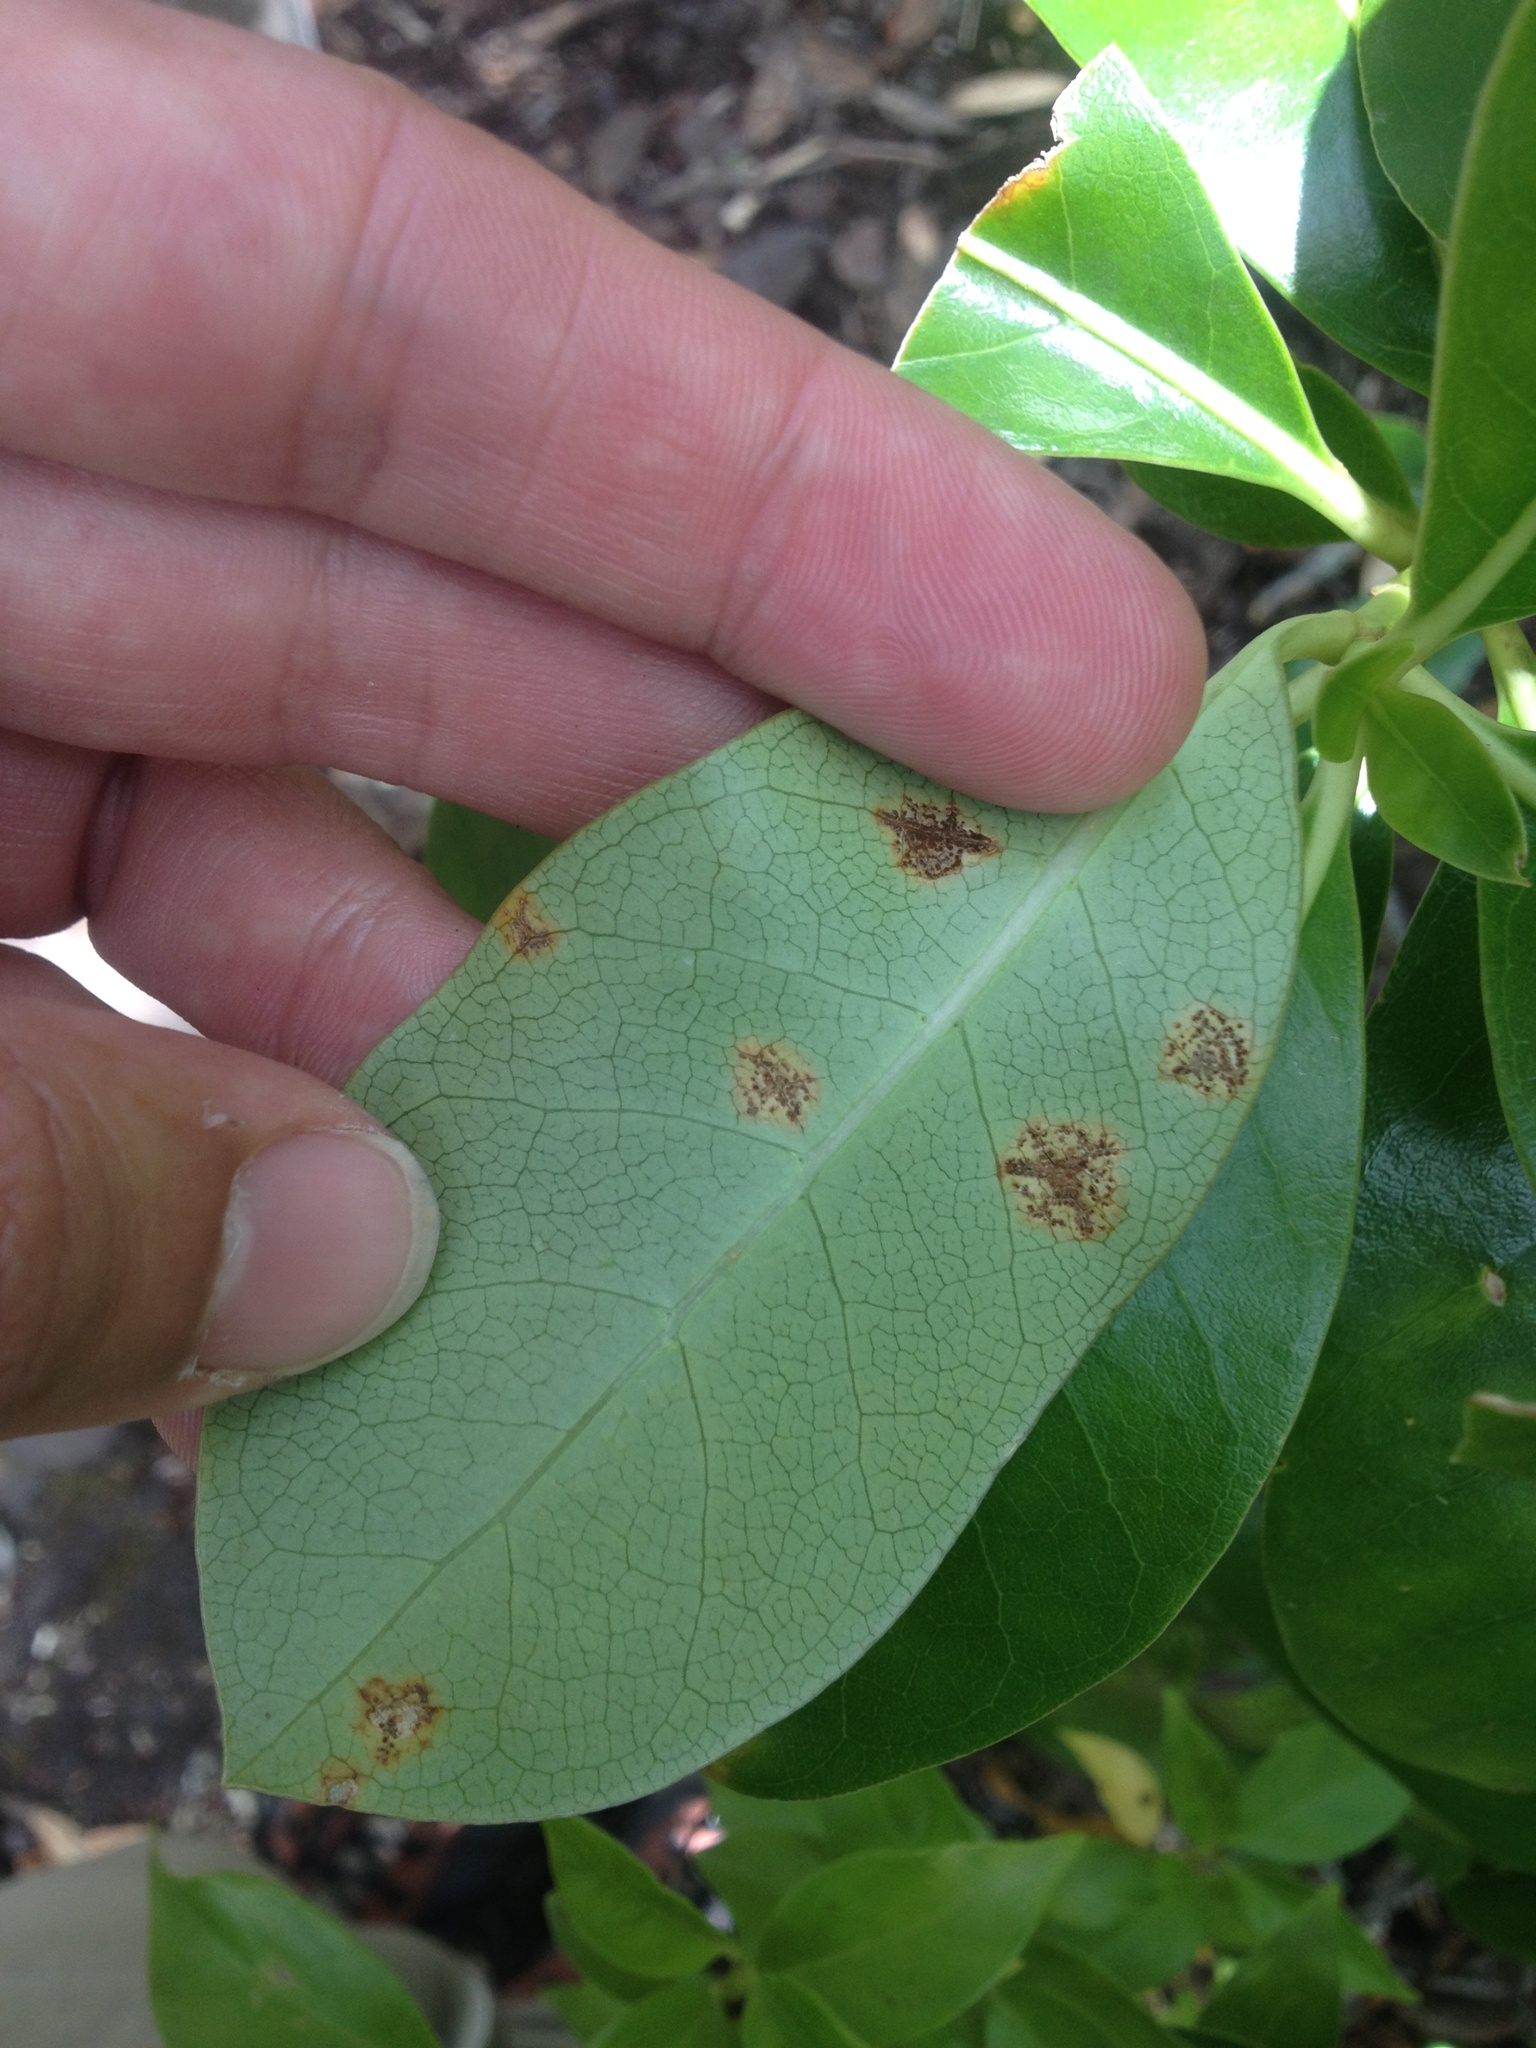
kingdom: Fungi
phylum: Basidiomycota
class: Pucciniomycetes
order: Pucciniales
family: Pucciniaceae
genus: Puccinia
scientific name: Puccinia coprosmae
